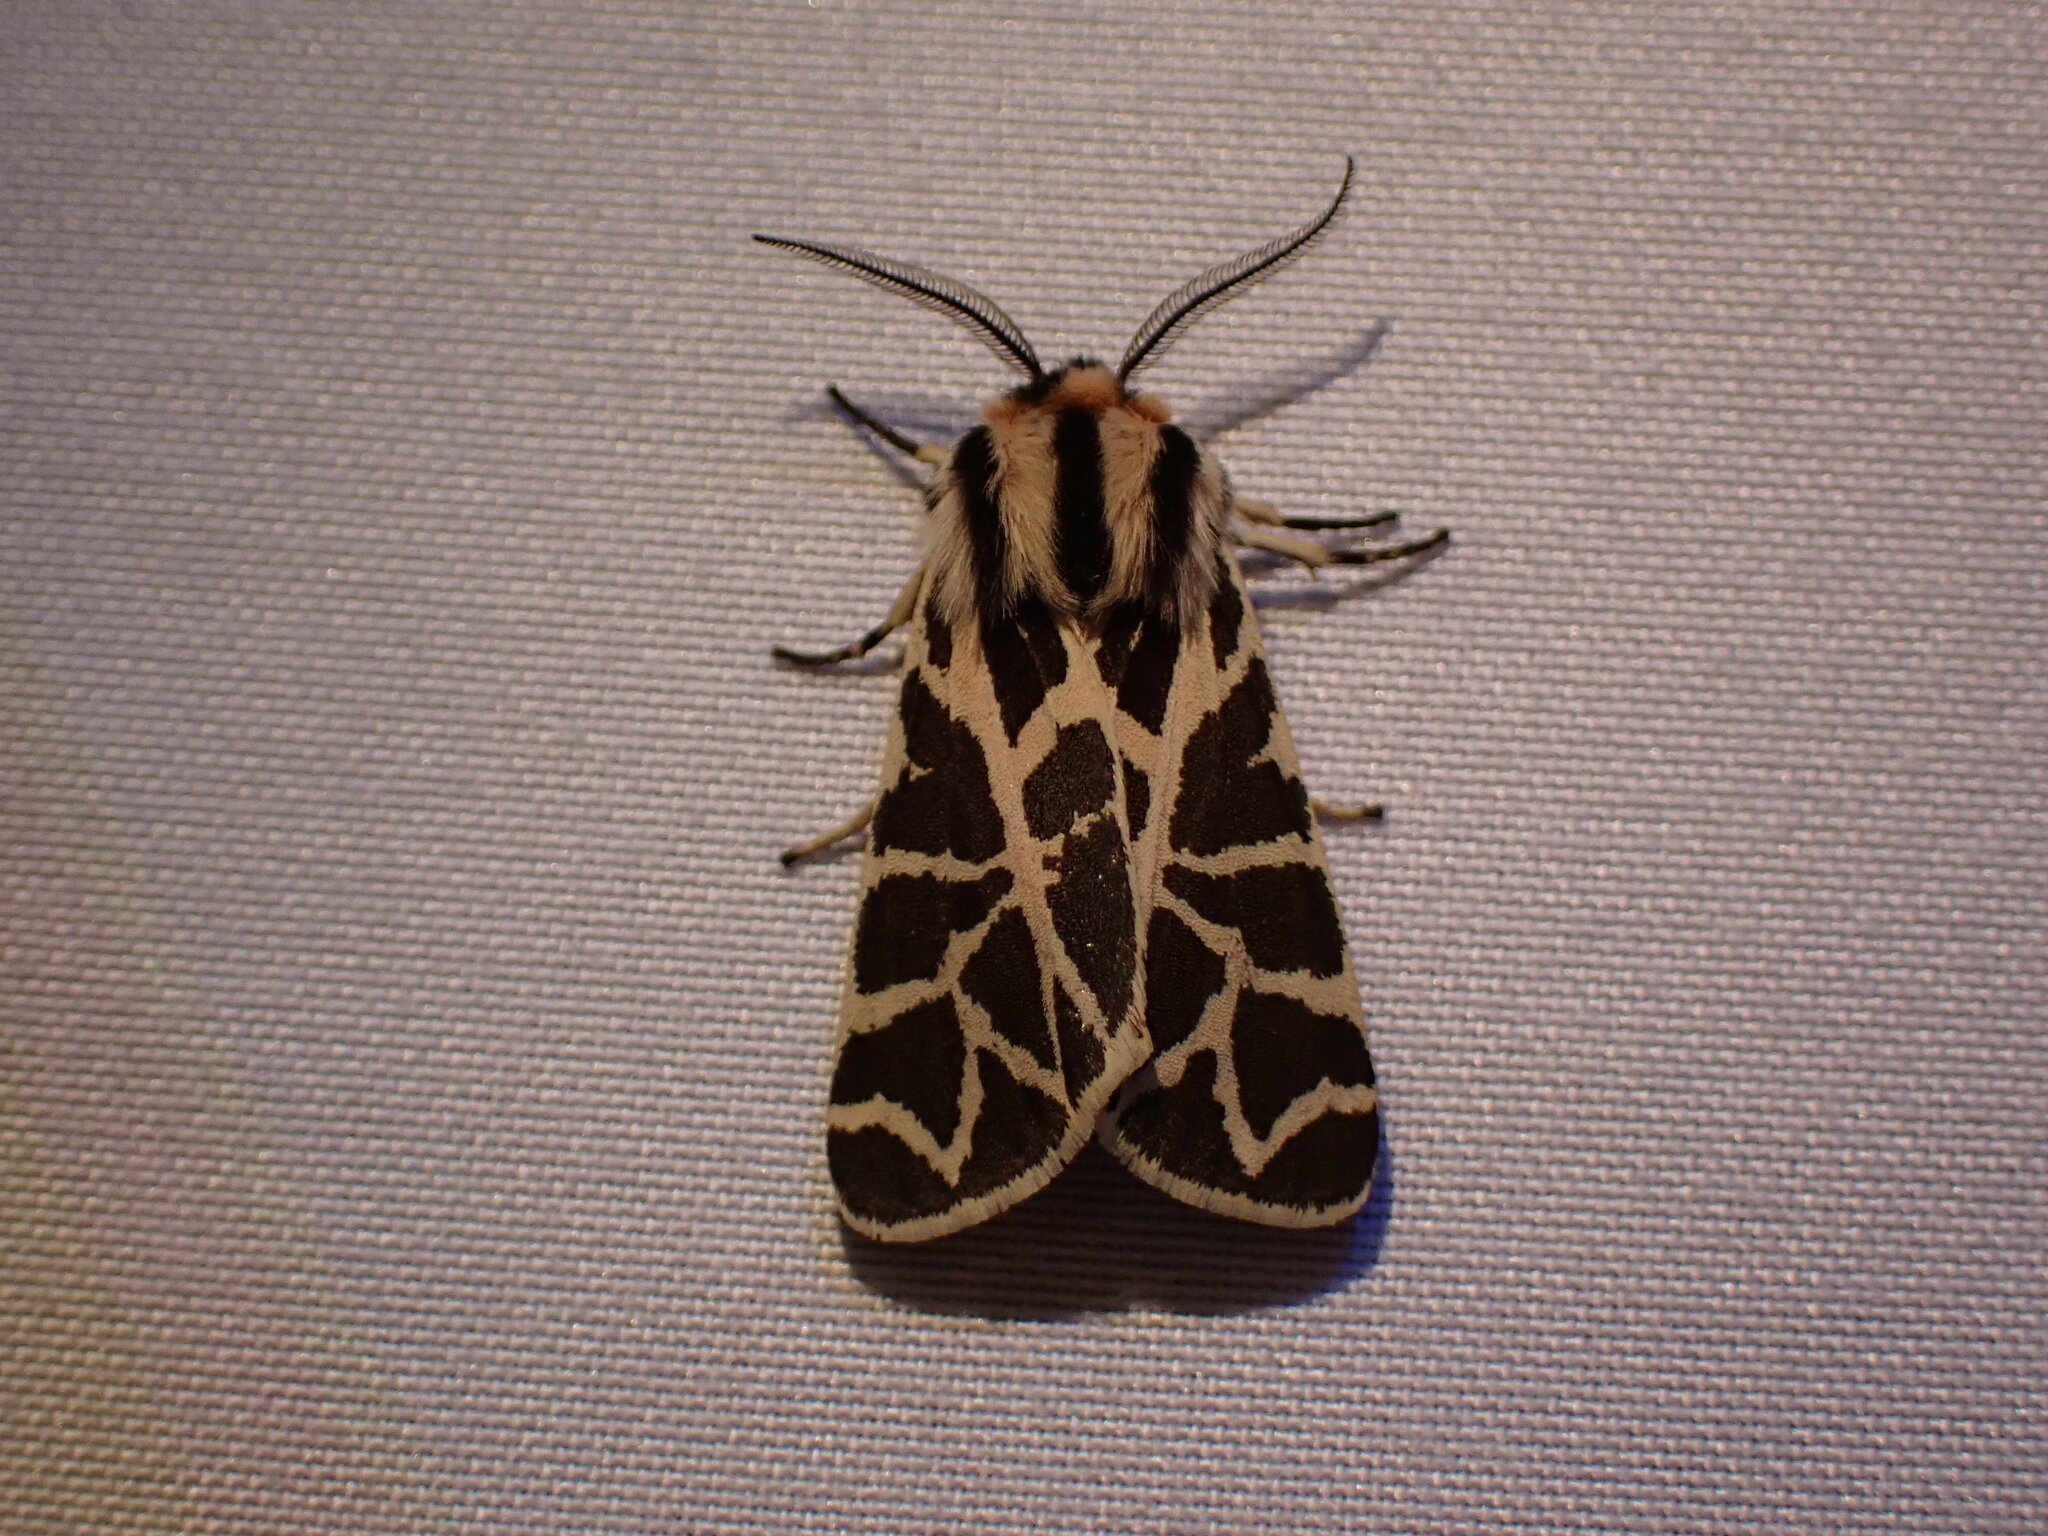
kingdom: Animalia
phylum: Arthropoda
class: Insecta
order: Lepidoptera
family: Erebidae
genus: Apantesis
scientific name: Apantesis
